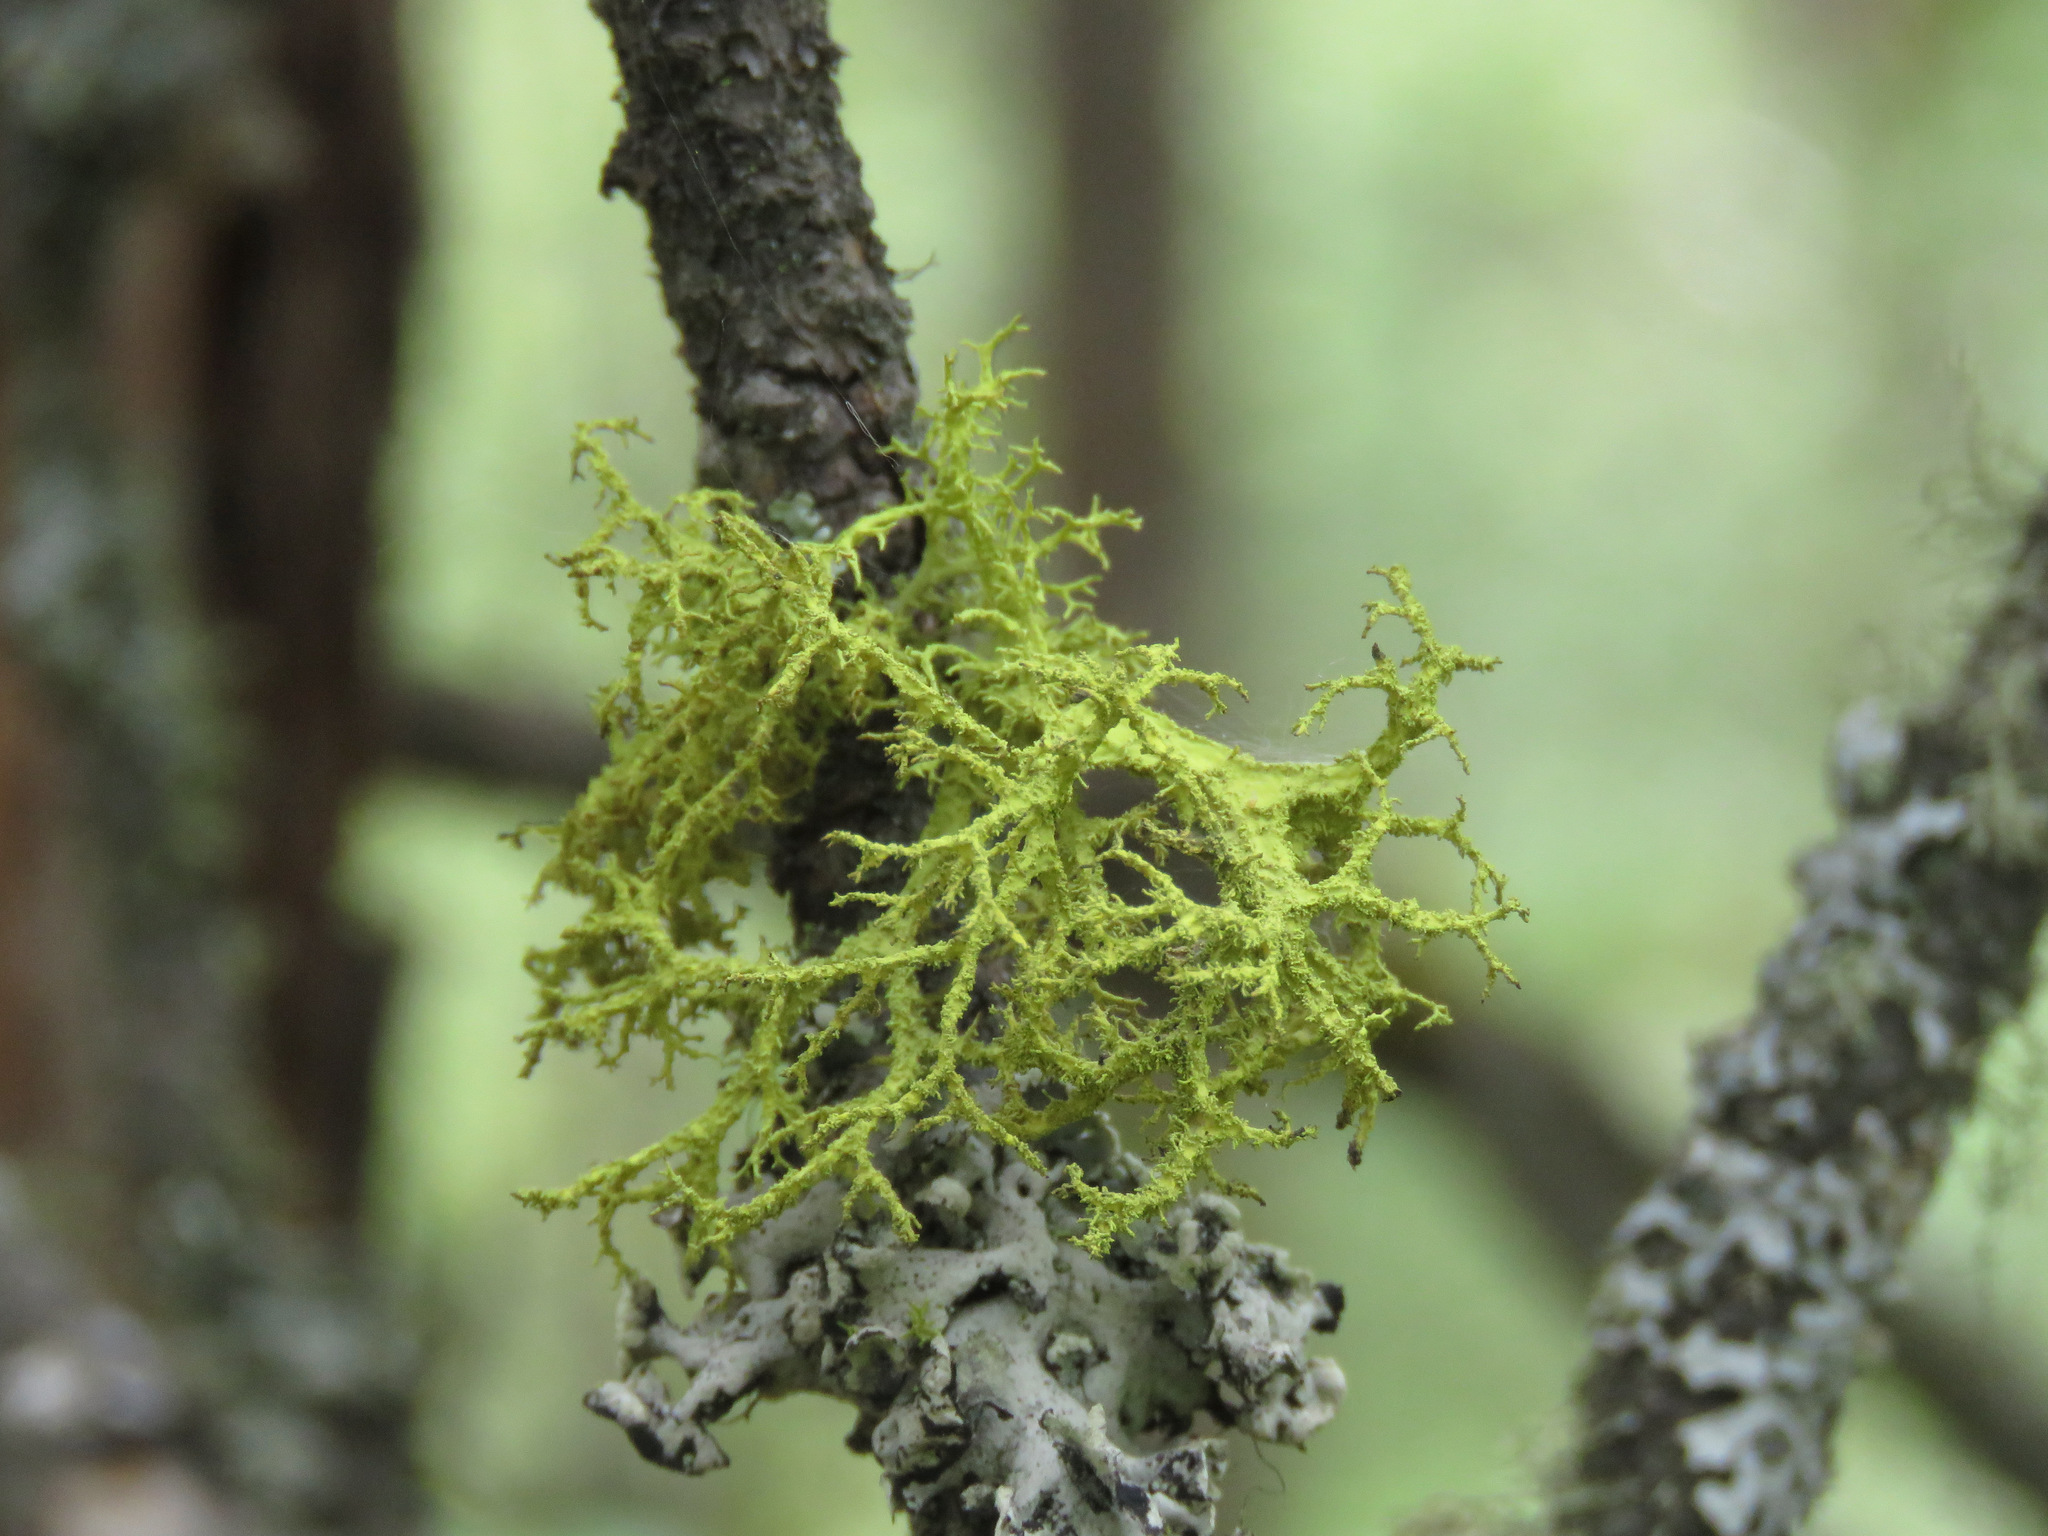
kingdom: Fungi
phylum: Ascomycota
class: Lecanoromycetes
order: Lecanorales
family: Parmeliaceae
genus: Letharia
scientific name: Letharia vulpina
